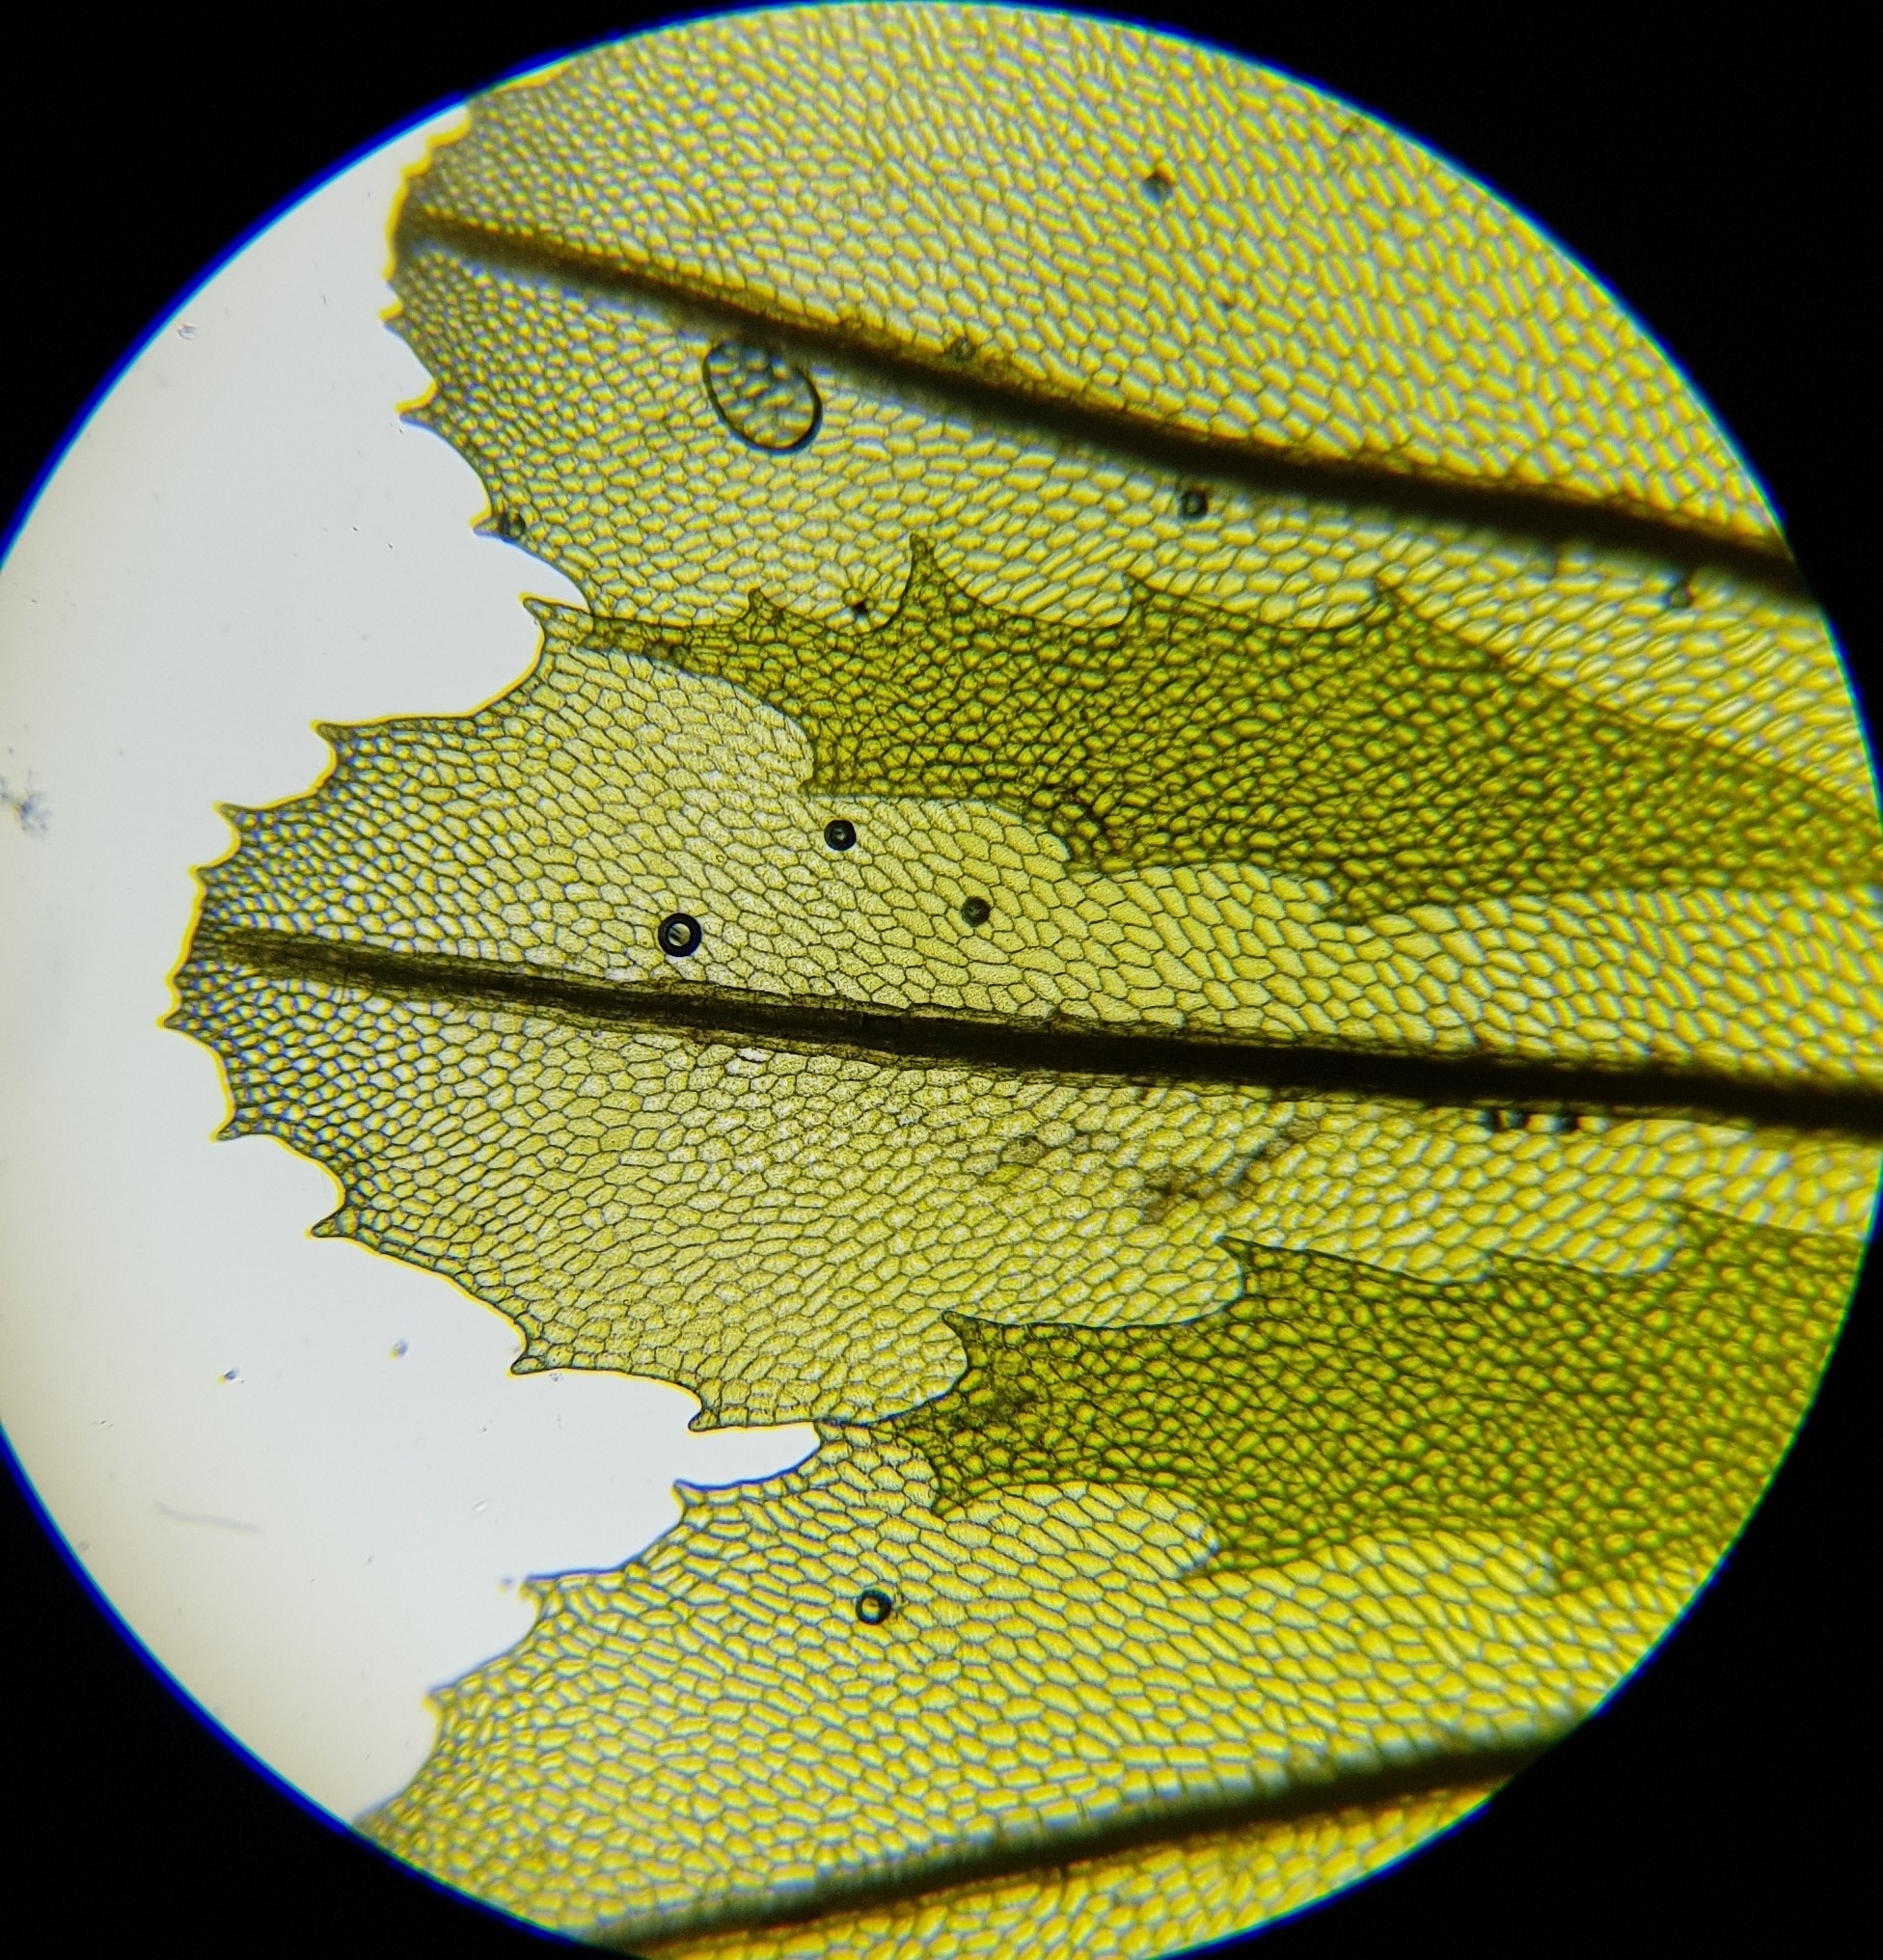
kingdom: Plantae
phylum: Tracheophyta
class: Polypodiopsida
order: Hymenophyllales
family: Hymenophyllaceae
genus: Hymenophyllum
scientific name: Hymenophyllum wilsonii
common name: Wilson's filmy fern
